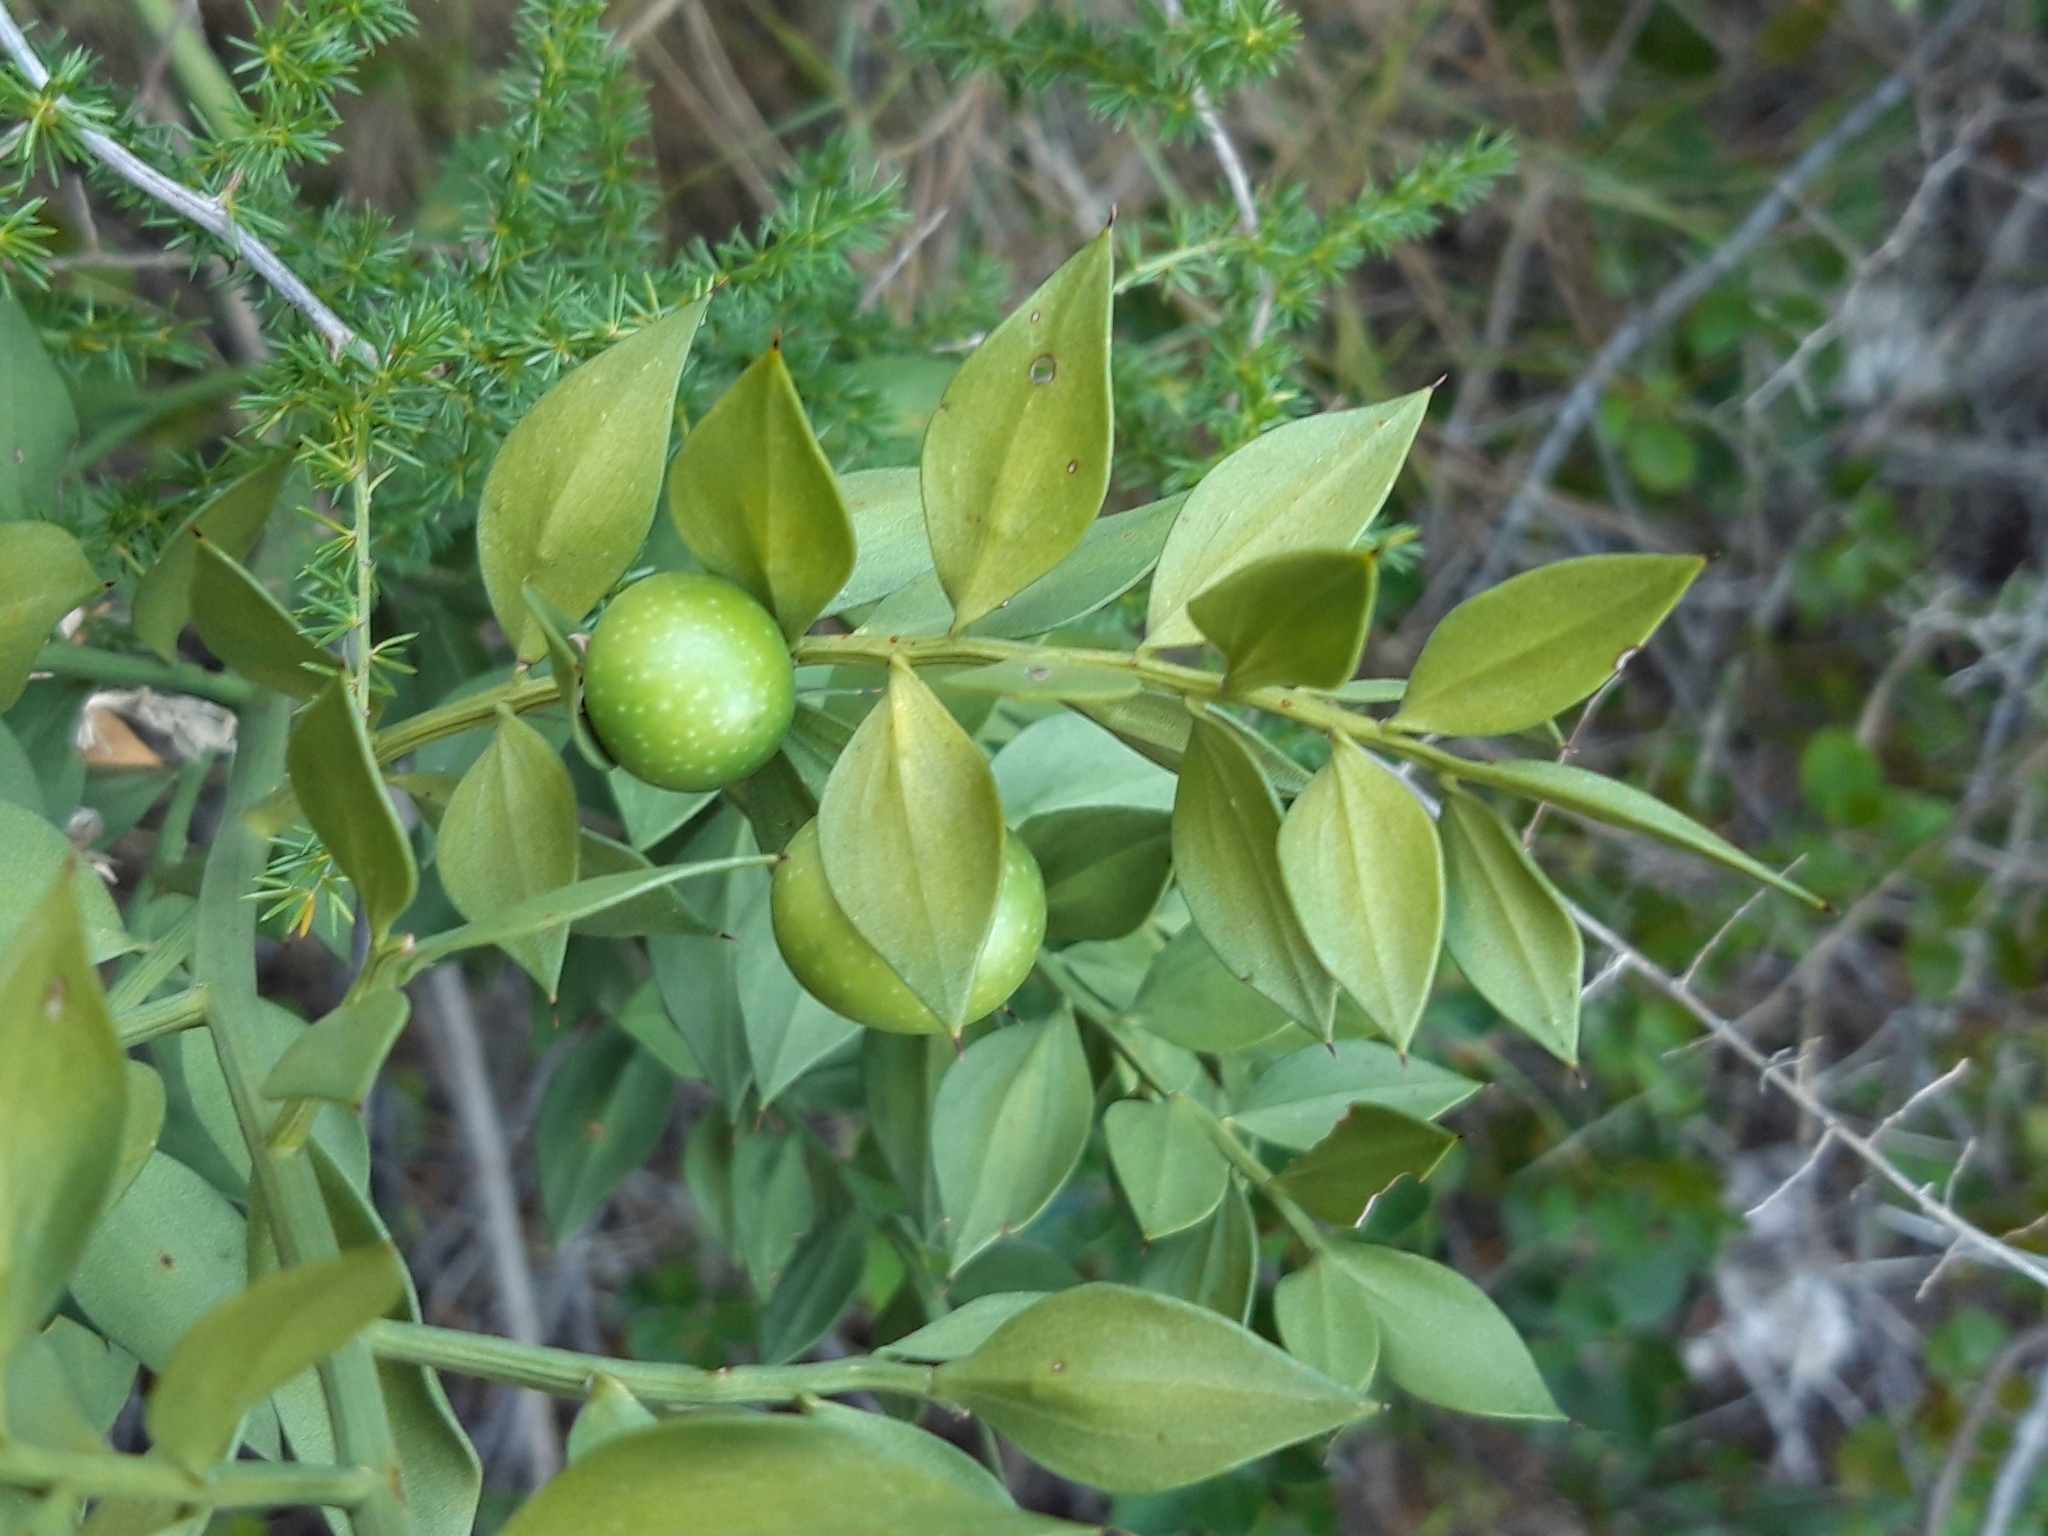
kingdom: Plantae
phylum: Tracheophyta
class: Liliopsida
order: Asparagales
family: Asparagaceae
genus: Ruscus
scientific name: Ruscus aculeatus
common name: Butcher's-broom
